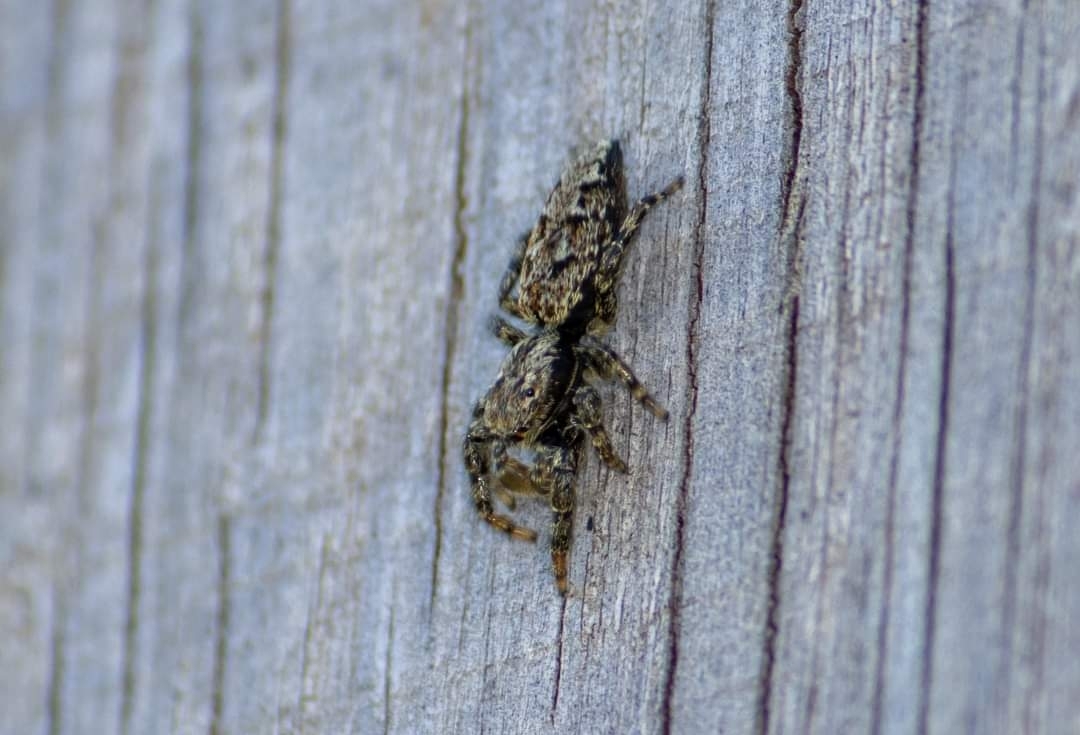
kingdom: Animalia
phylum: Arthropoda
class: Arachnida
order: Araneae
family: Salticidae
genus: Marpissa
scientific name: Marpissa muscosa
